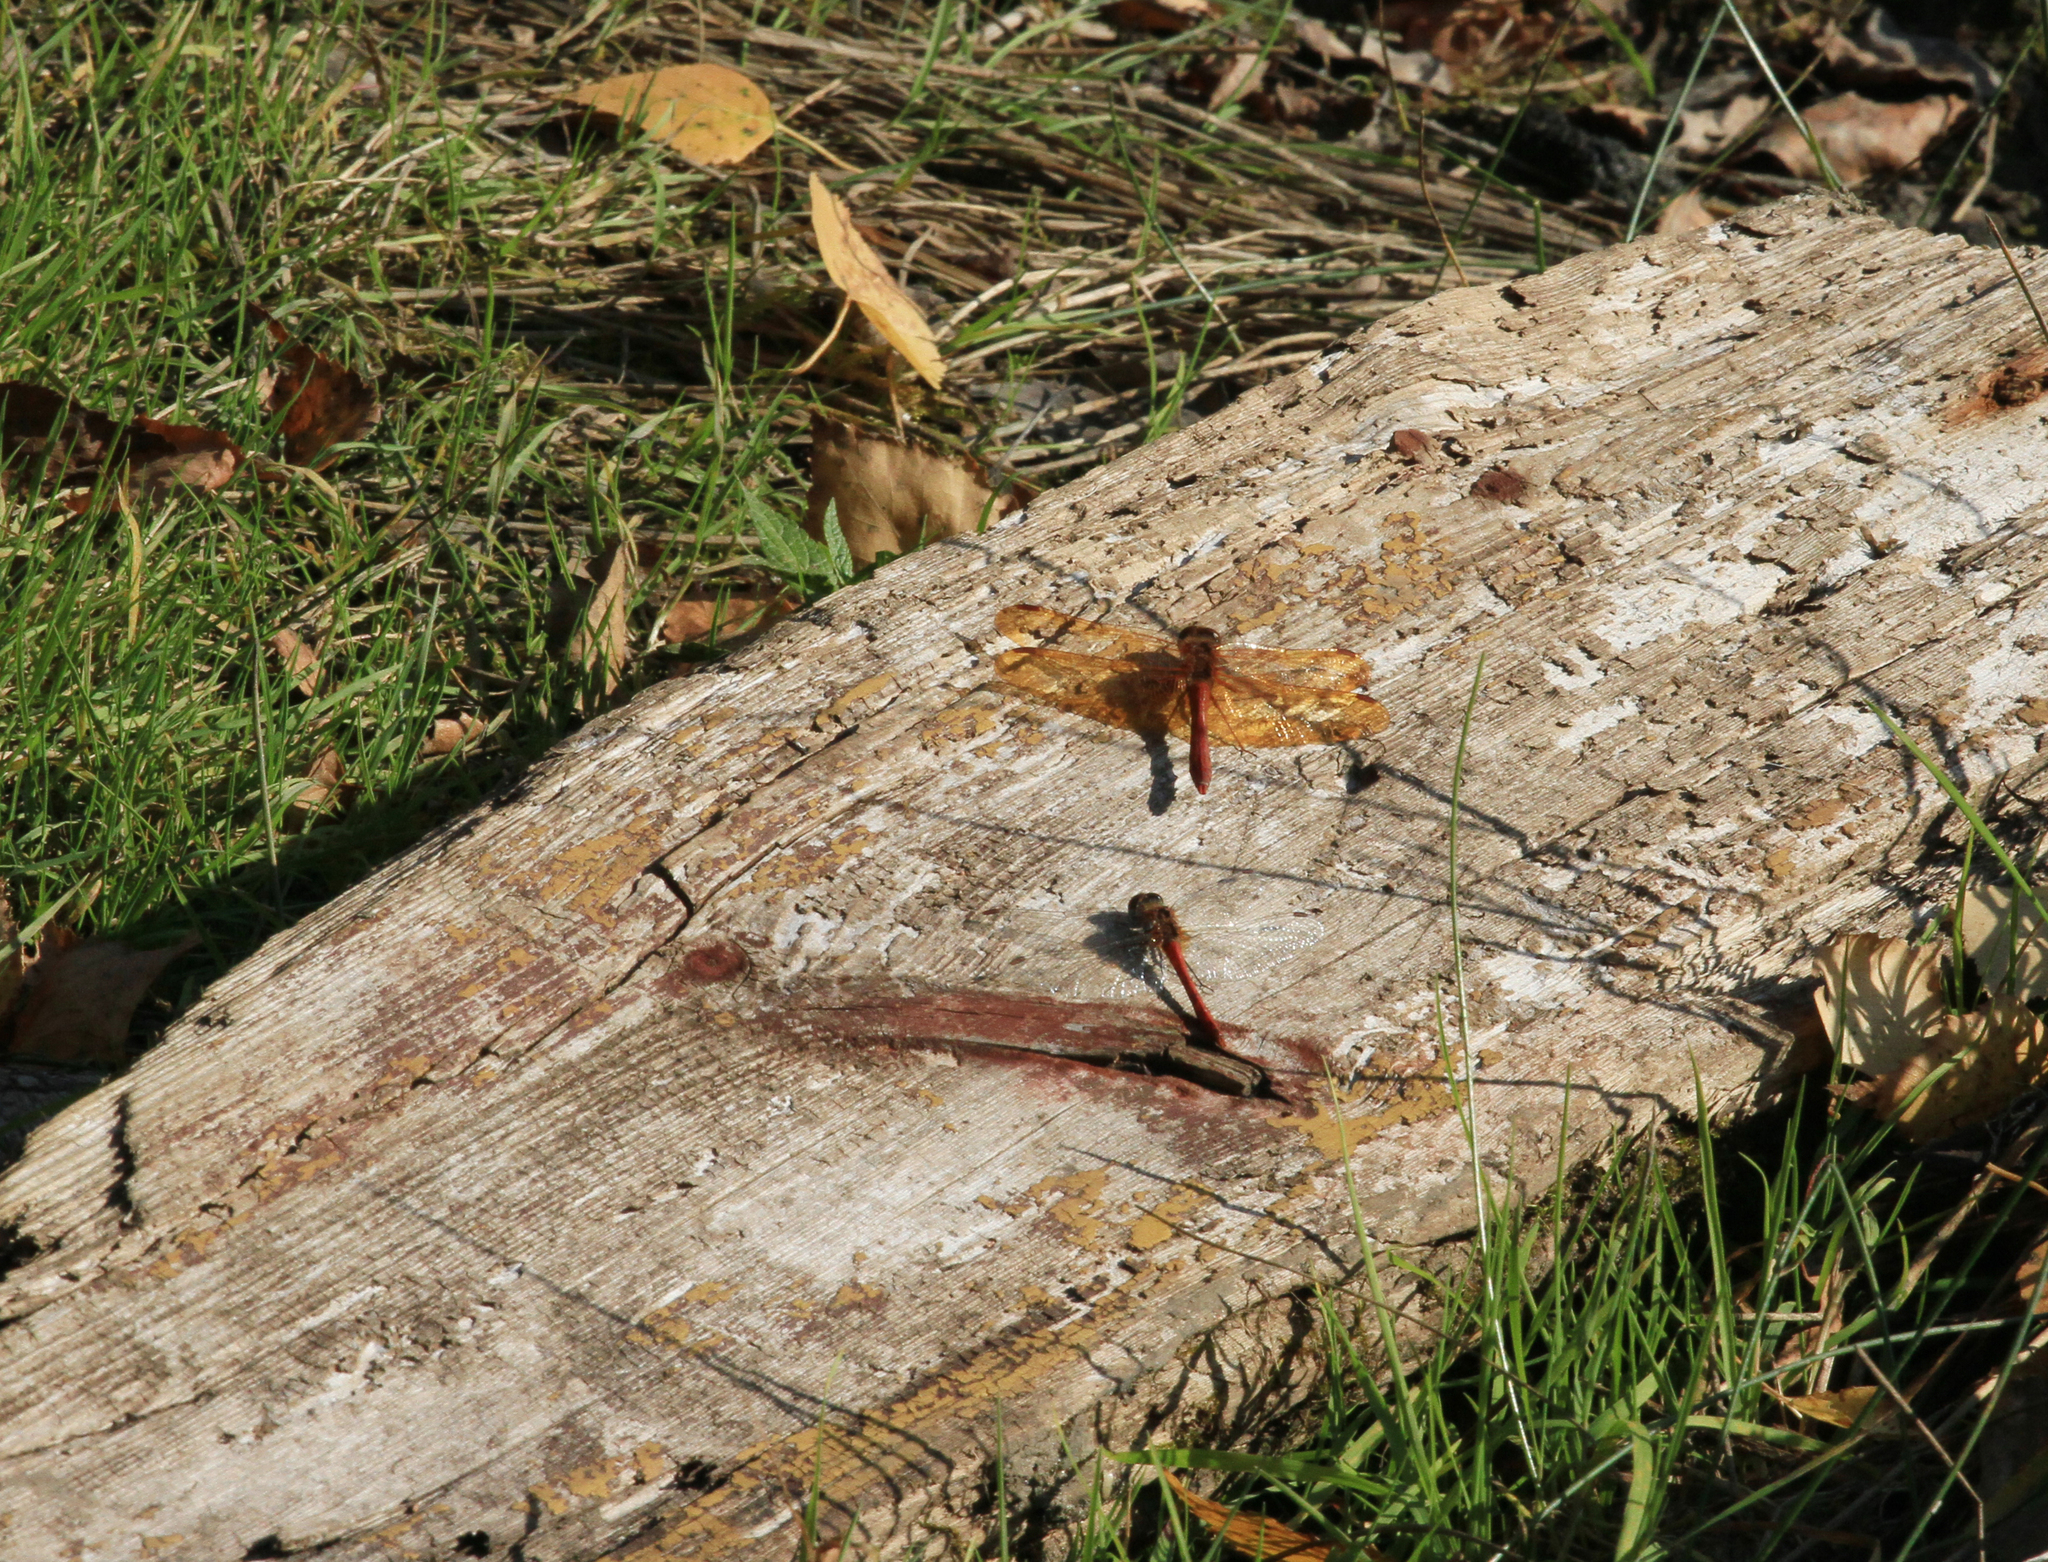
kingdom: Animalia
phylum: Arthropoda
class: Insecta
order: Odonata
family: Libellulidae
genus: Sympetrum
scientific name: Sympetrum croceolum
